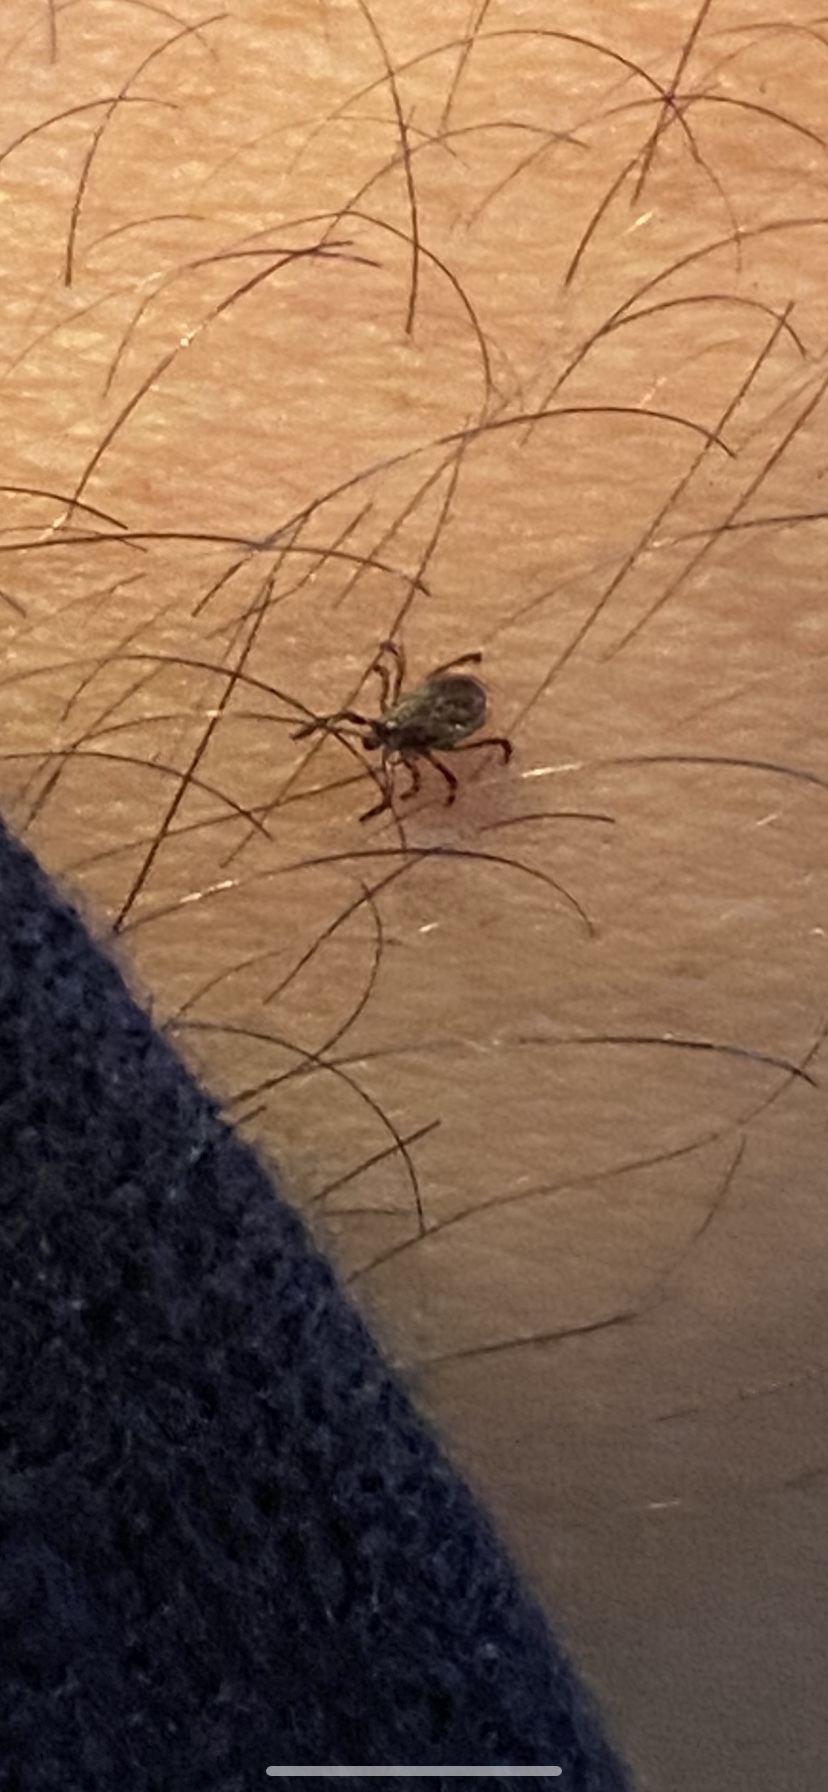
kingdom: Animalia
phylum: Arthropoda
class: Arachnida
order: Ixodida
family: Ixodidae
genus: Ixodes
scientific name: Ixodes scapularis
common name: Black legged tick
